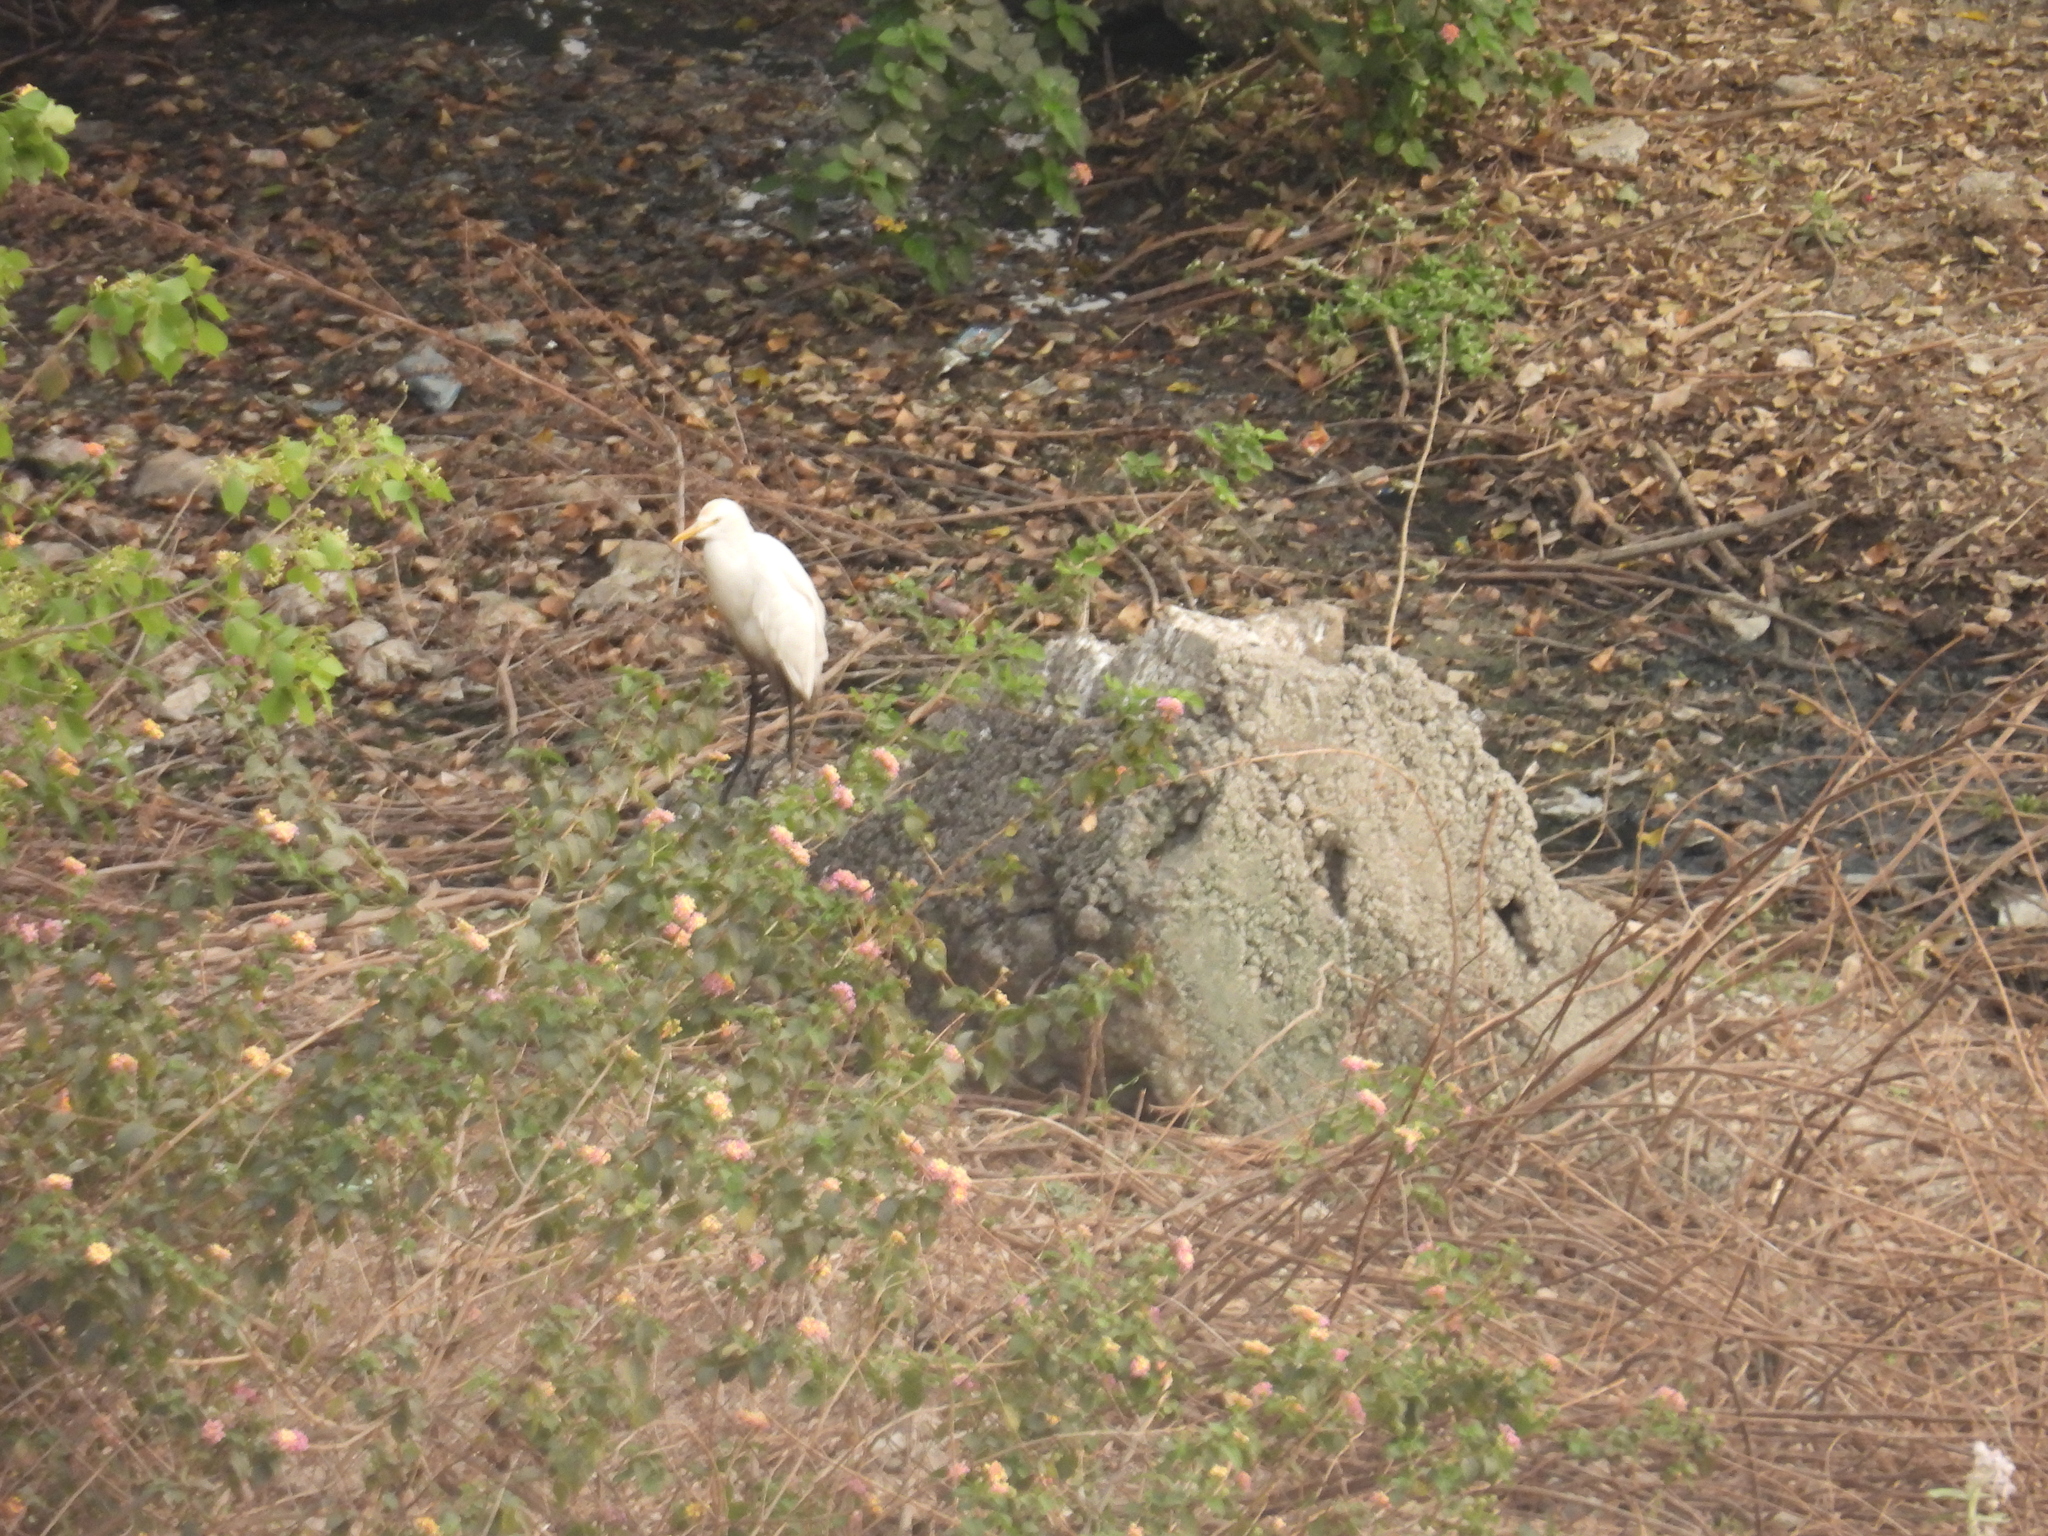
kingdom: Animalia
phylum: Chordata
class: Aves
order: Pelecaniformes
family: Ardeidae
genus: Bubulcus
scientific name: Bubulcus coromandus
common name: Eastern cattle egret
